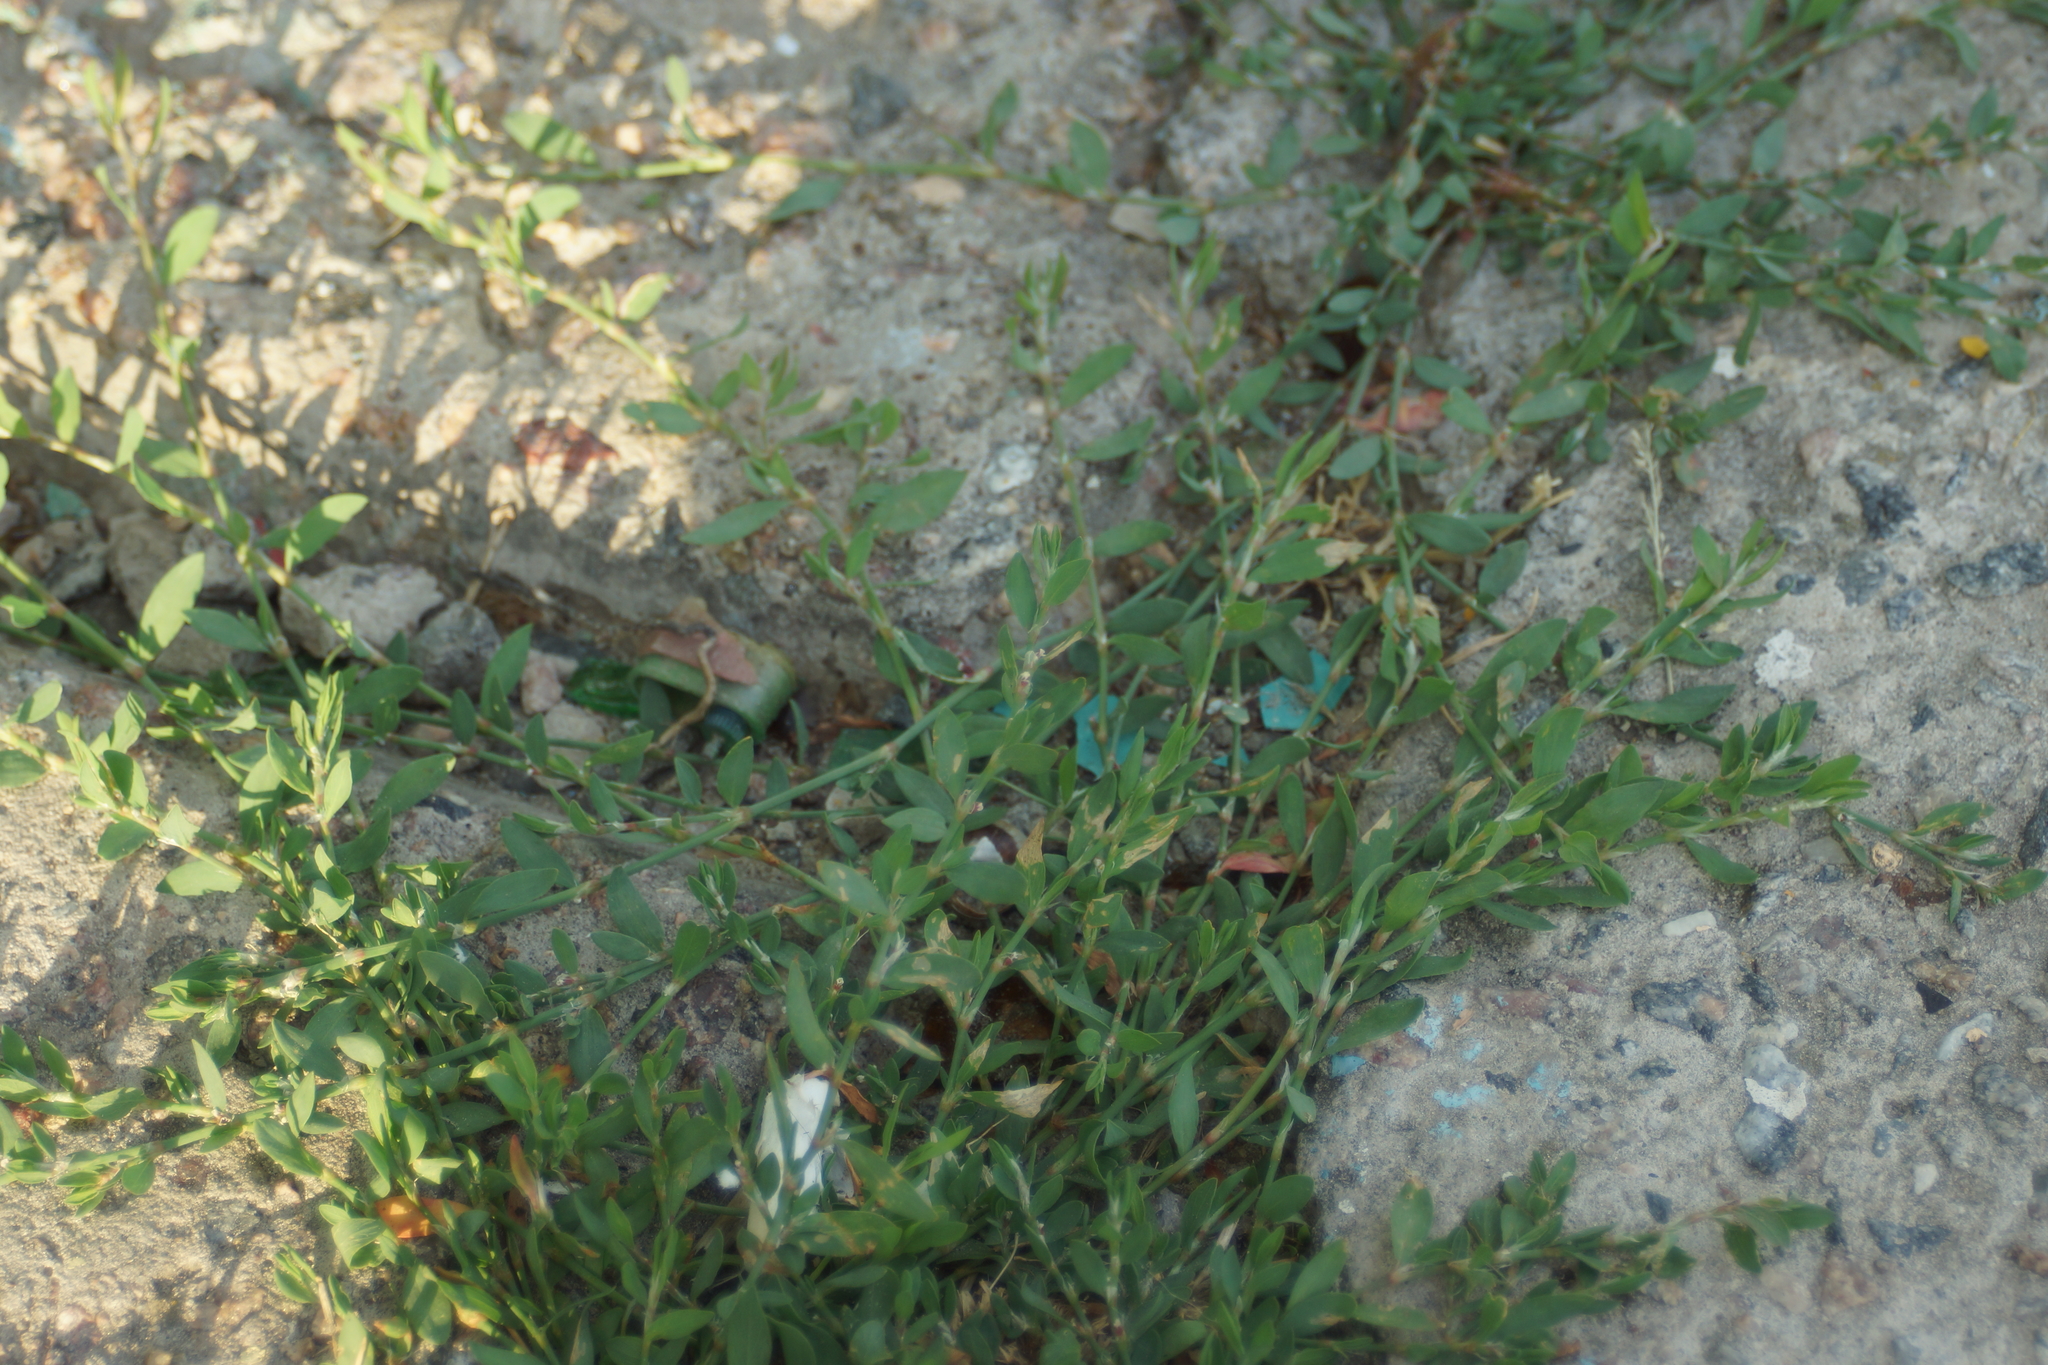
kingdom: Plantae
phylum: Tracheophyta
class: Magnoliopsida
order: Caryophyllales
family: Polygonaceae
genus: Polygonum
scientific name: Polygonum aviculare
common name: Prostrate knotweed
